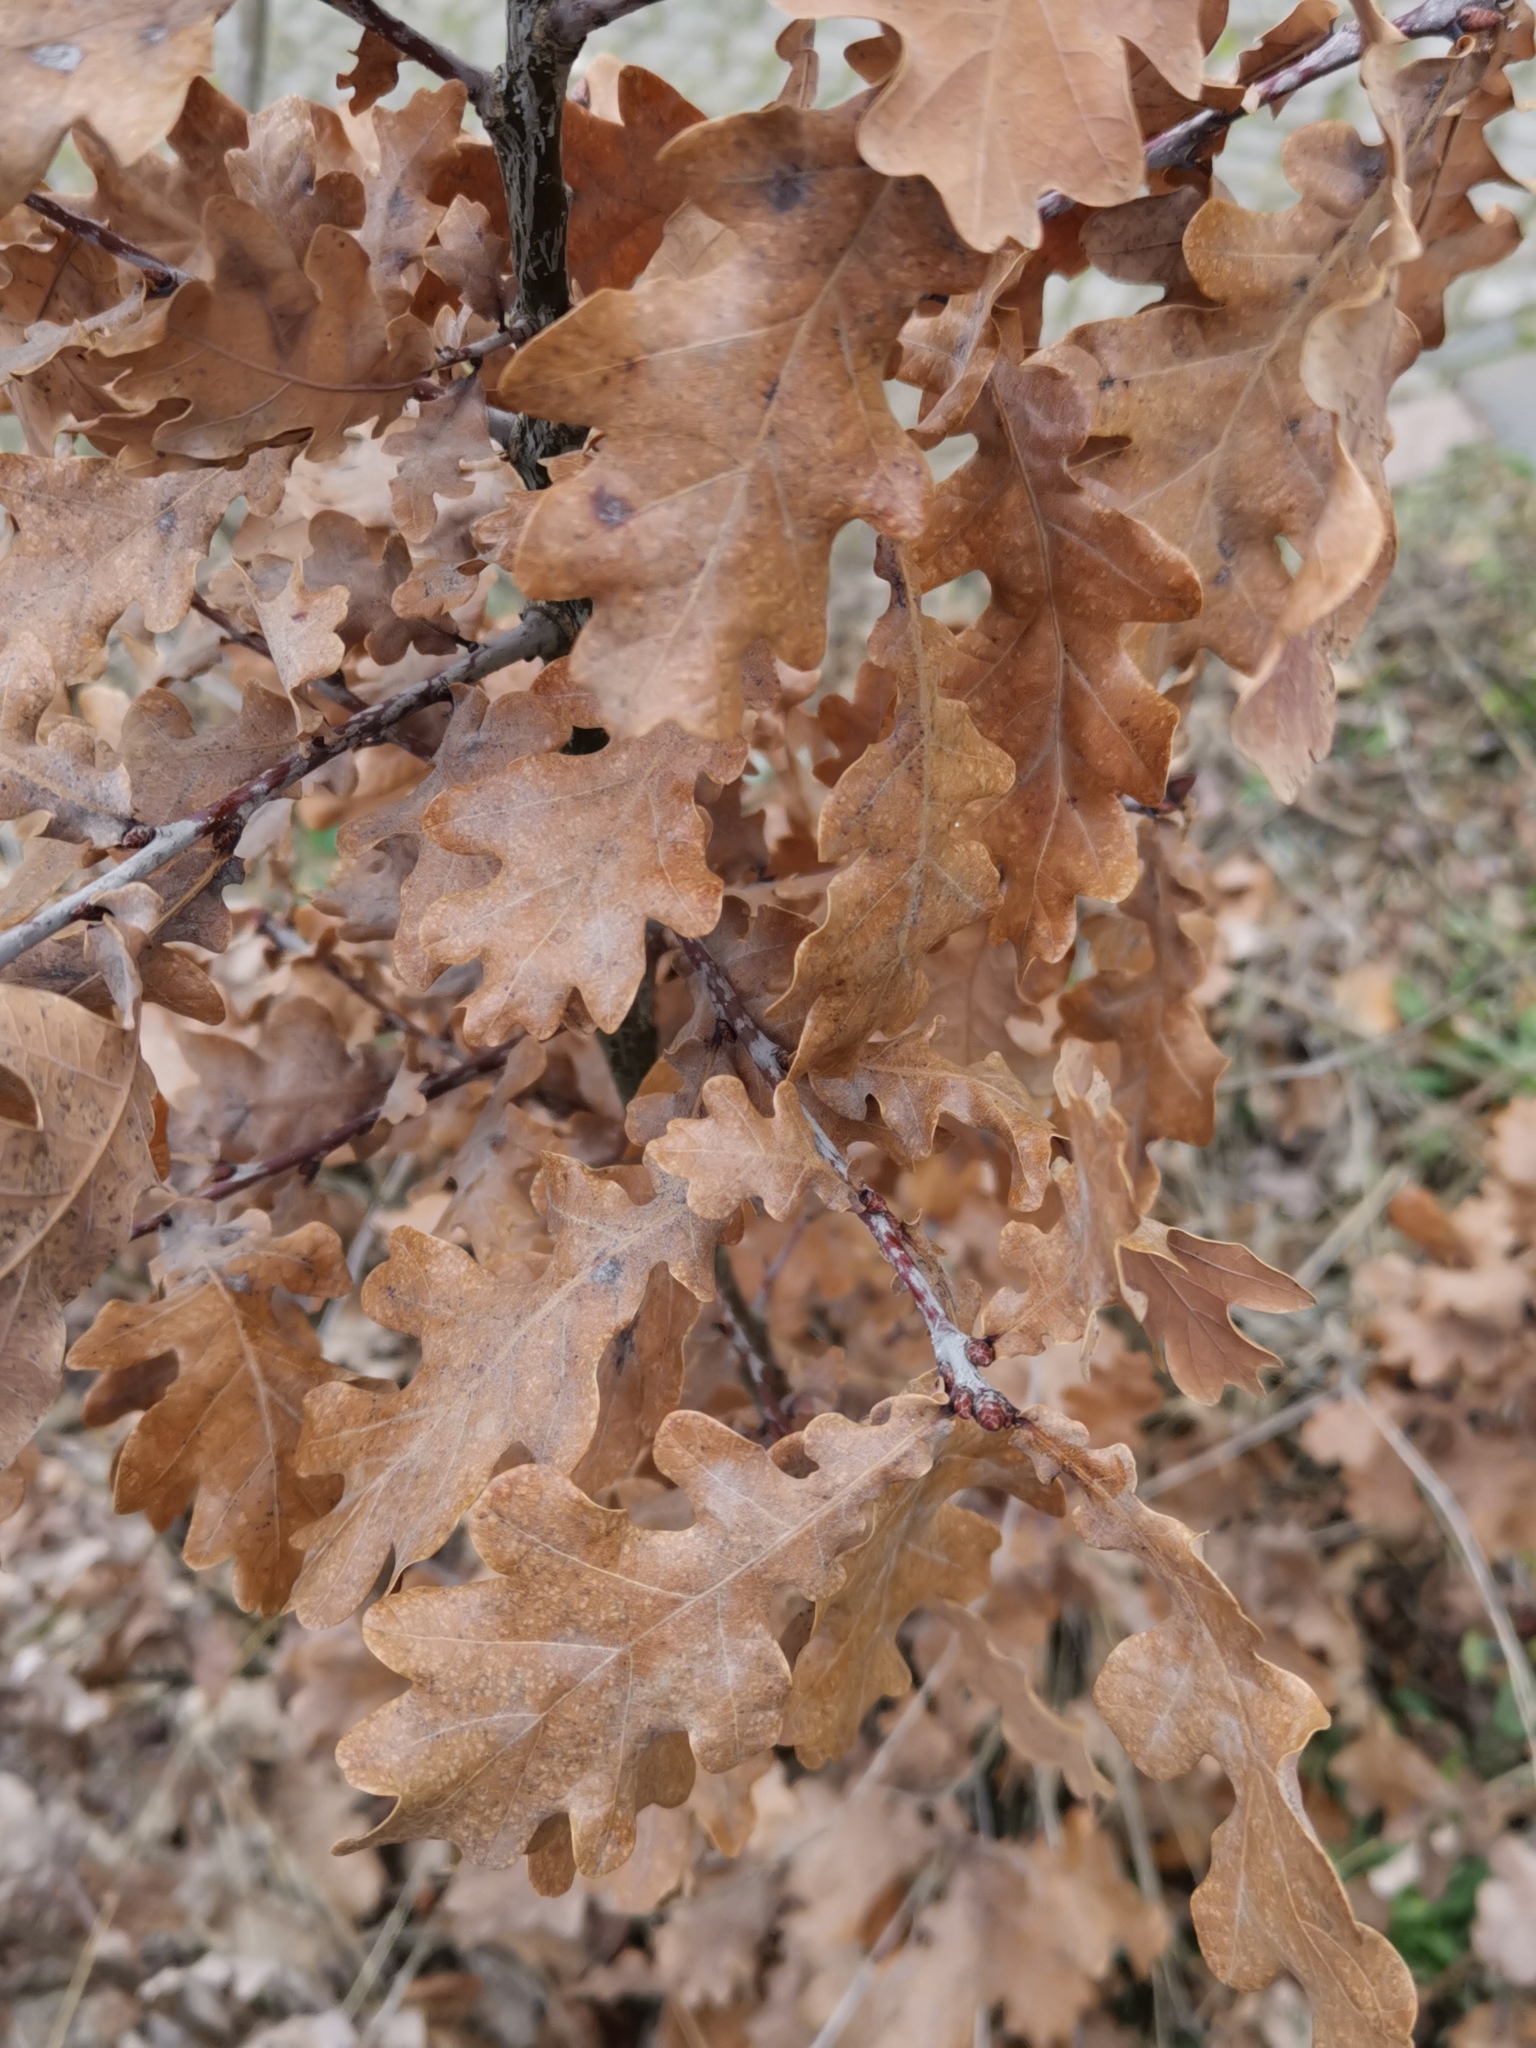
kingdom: Plantae
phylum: Tracheophyta
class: Magnoliopsida
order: Fagales
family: Fagaceae
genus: Quercus
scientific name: Quercus robur
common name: Pedunculate oak
